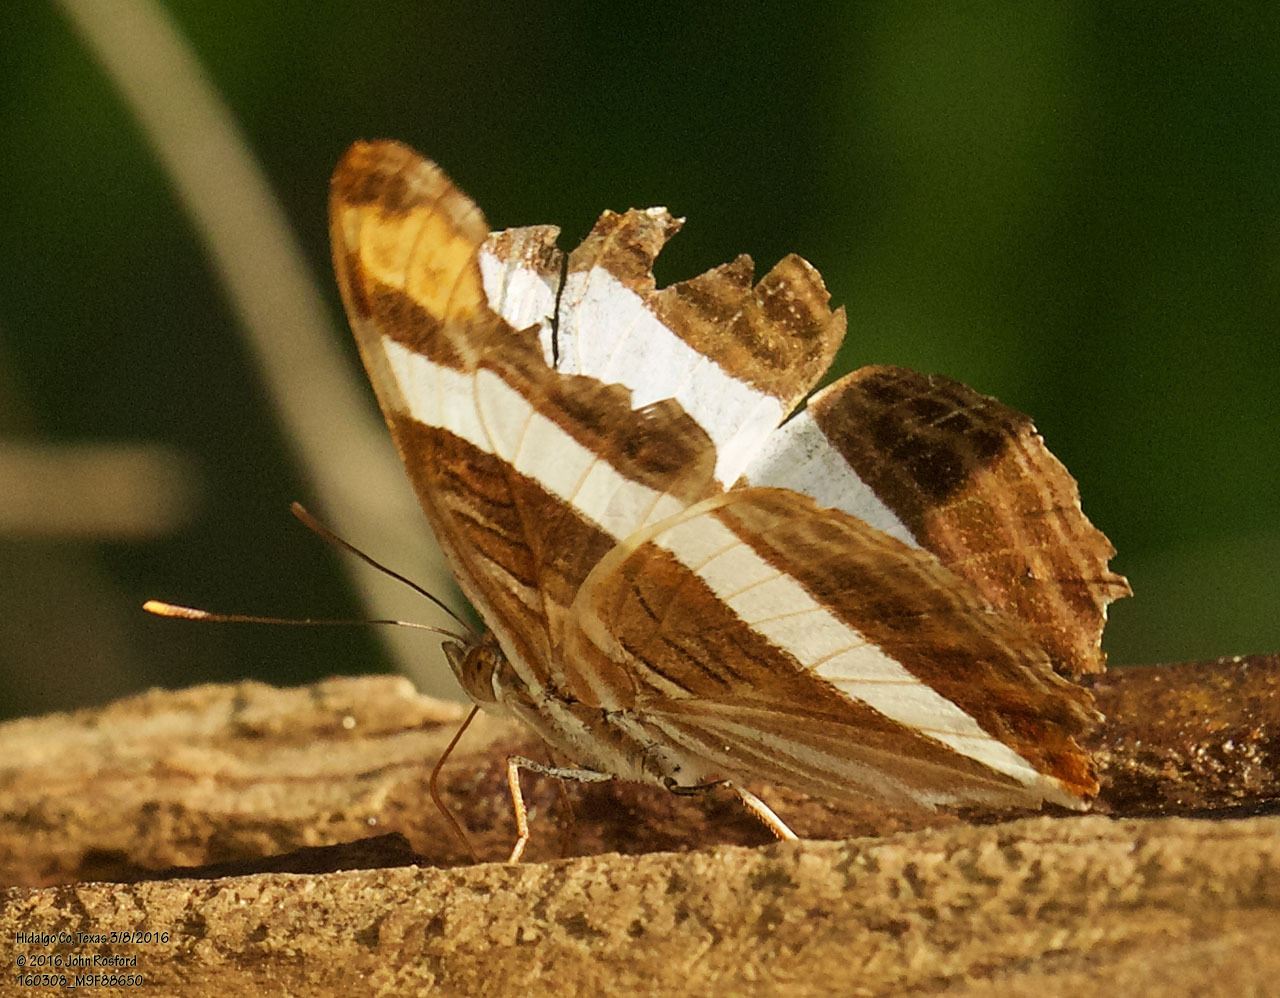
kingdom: Animalia
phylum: Arthropoda
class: Insecta
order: Lepidoptera
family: Nymphalidae
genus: Limenitis
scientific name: Limenitis fessonia
